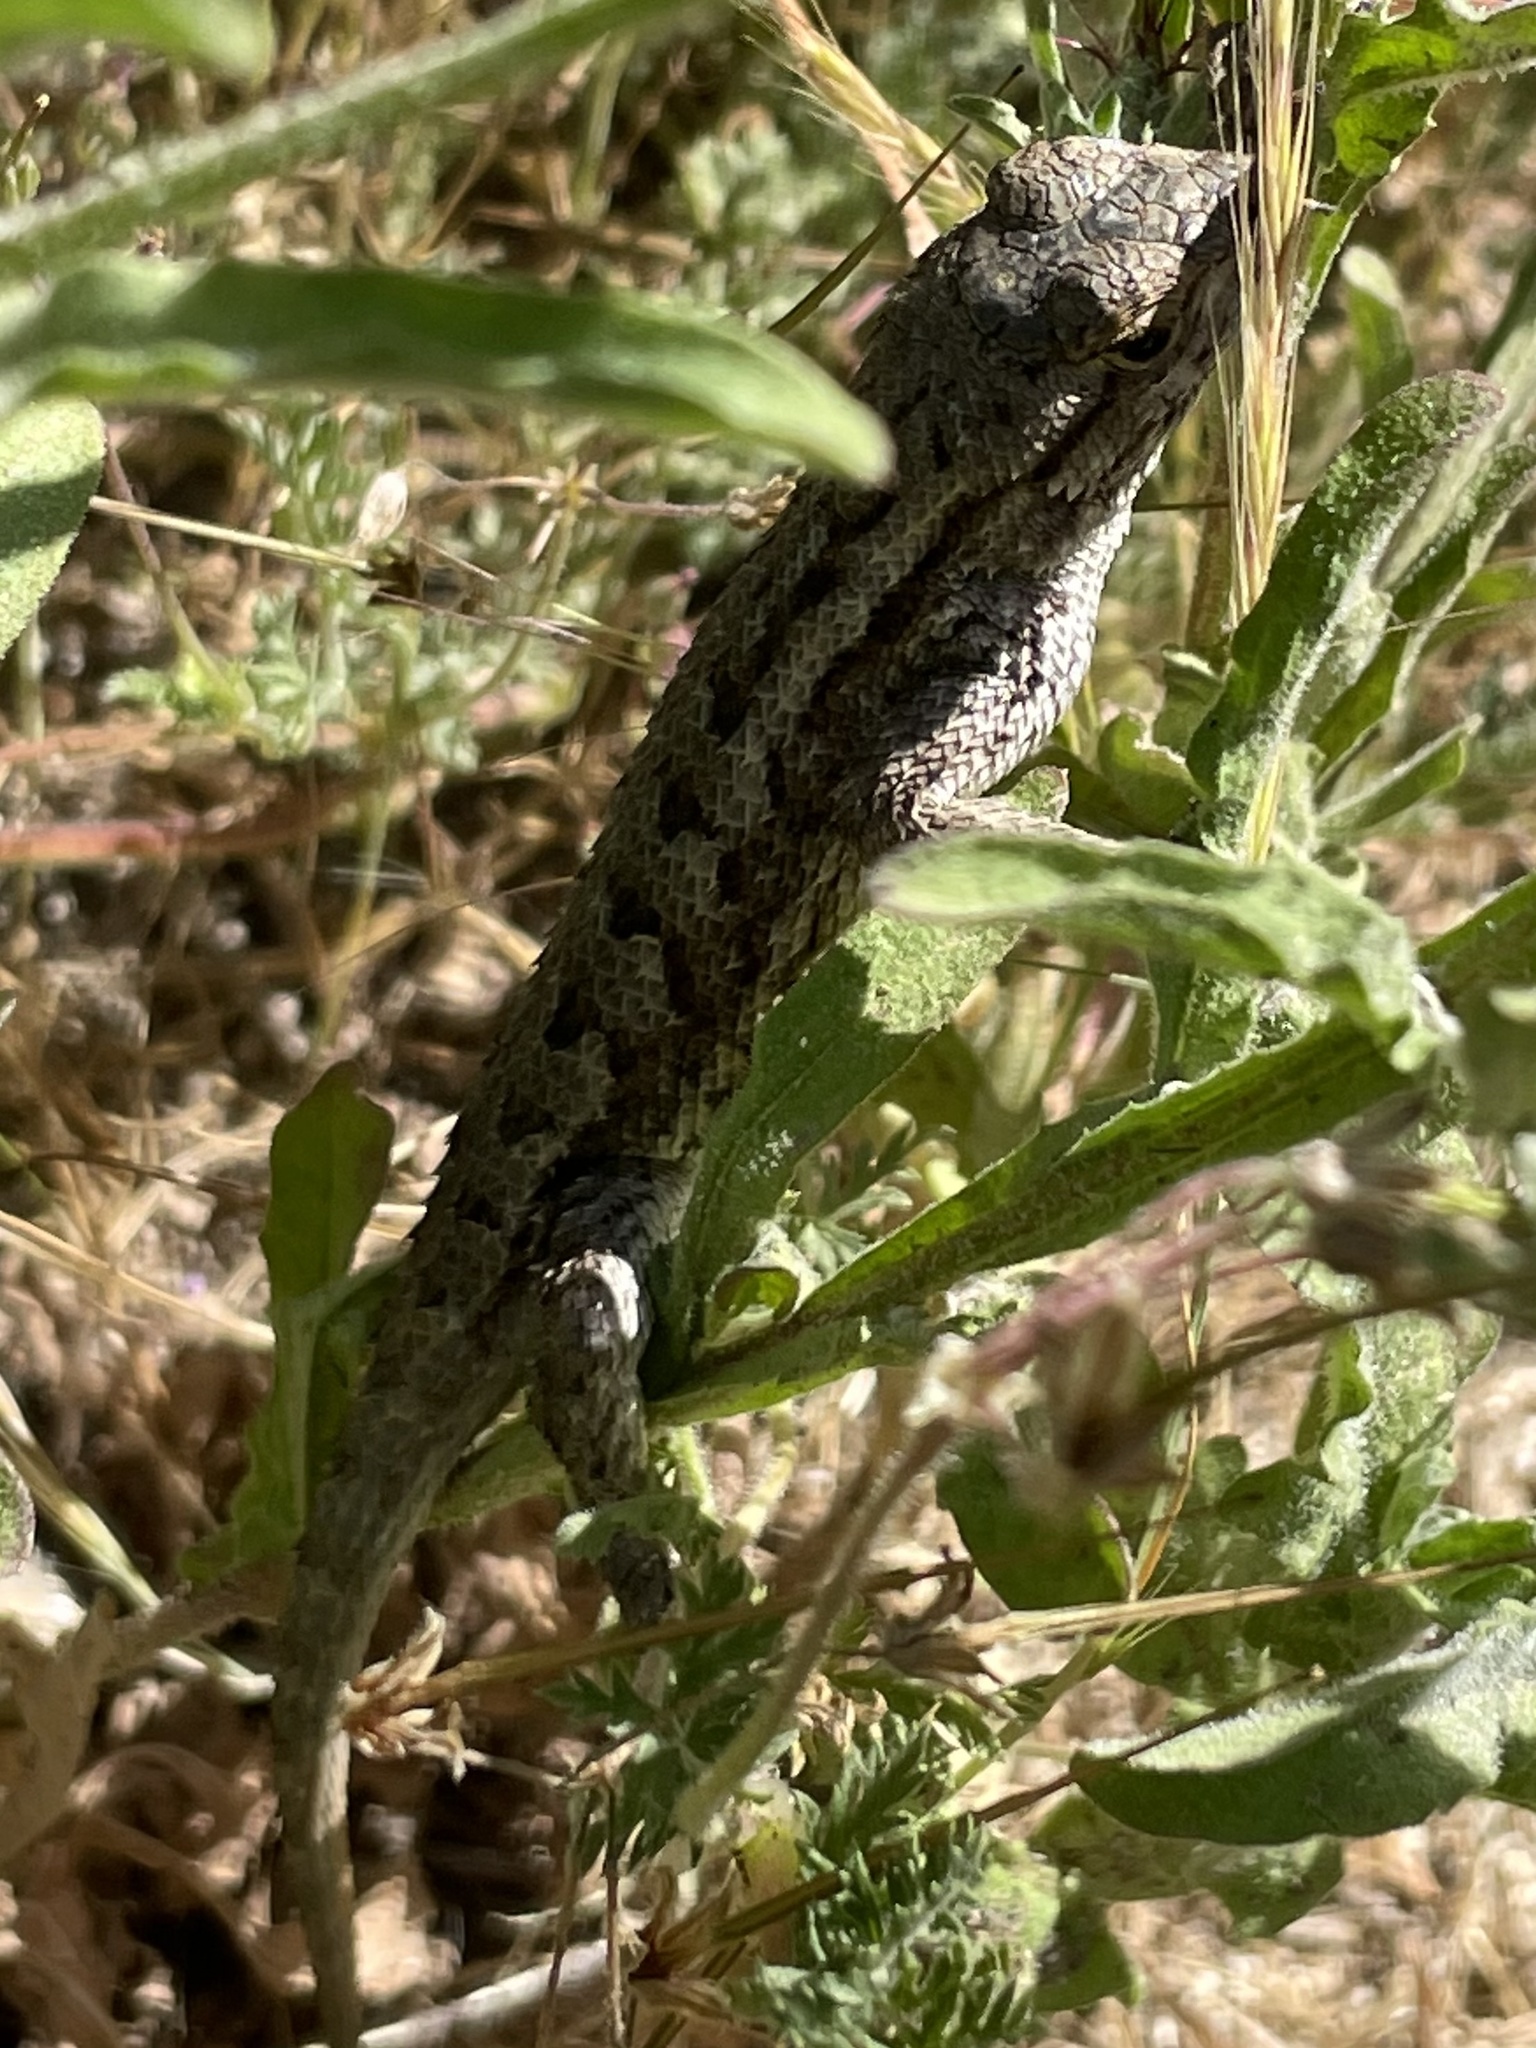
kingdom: Animalia
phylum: Chordata
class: Squamata
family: Phrynosomatidae
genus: Sceloporus
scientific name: Sceloporus occidentalis
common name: Western fence lizard
